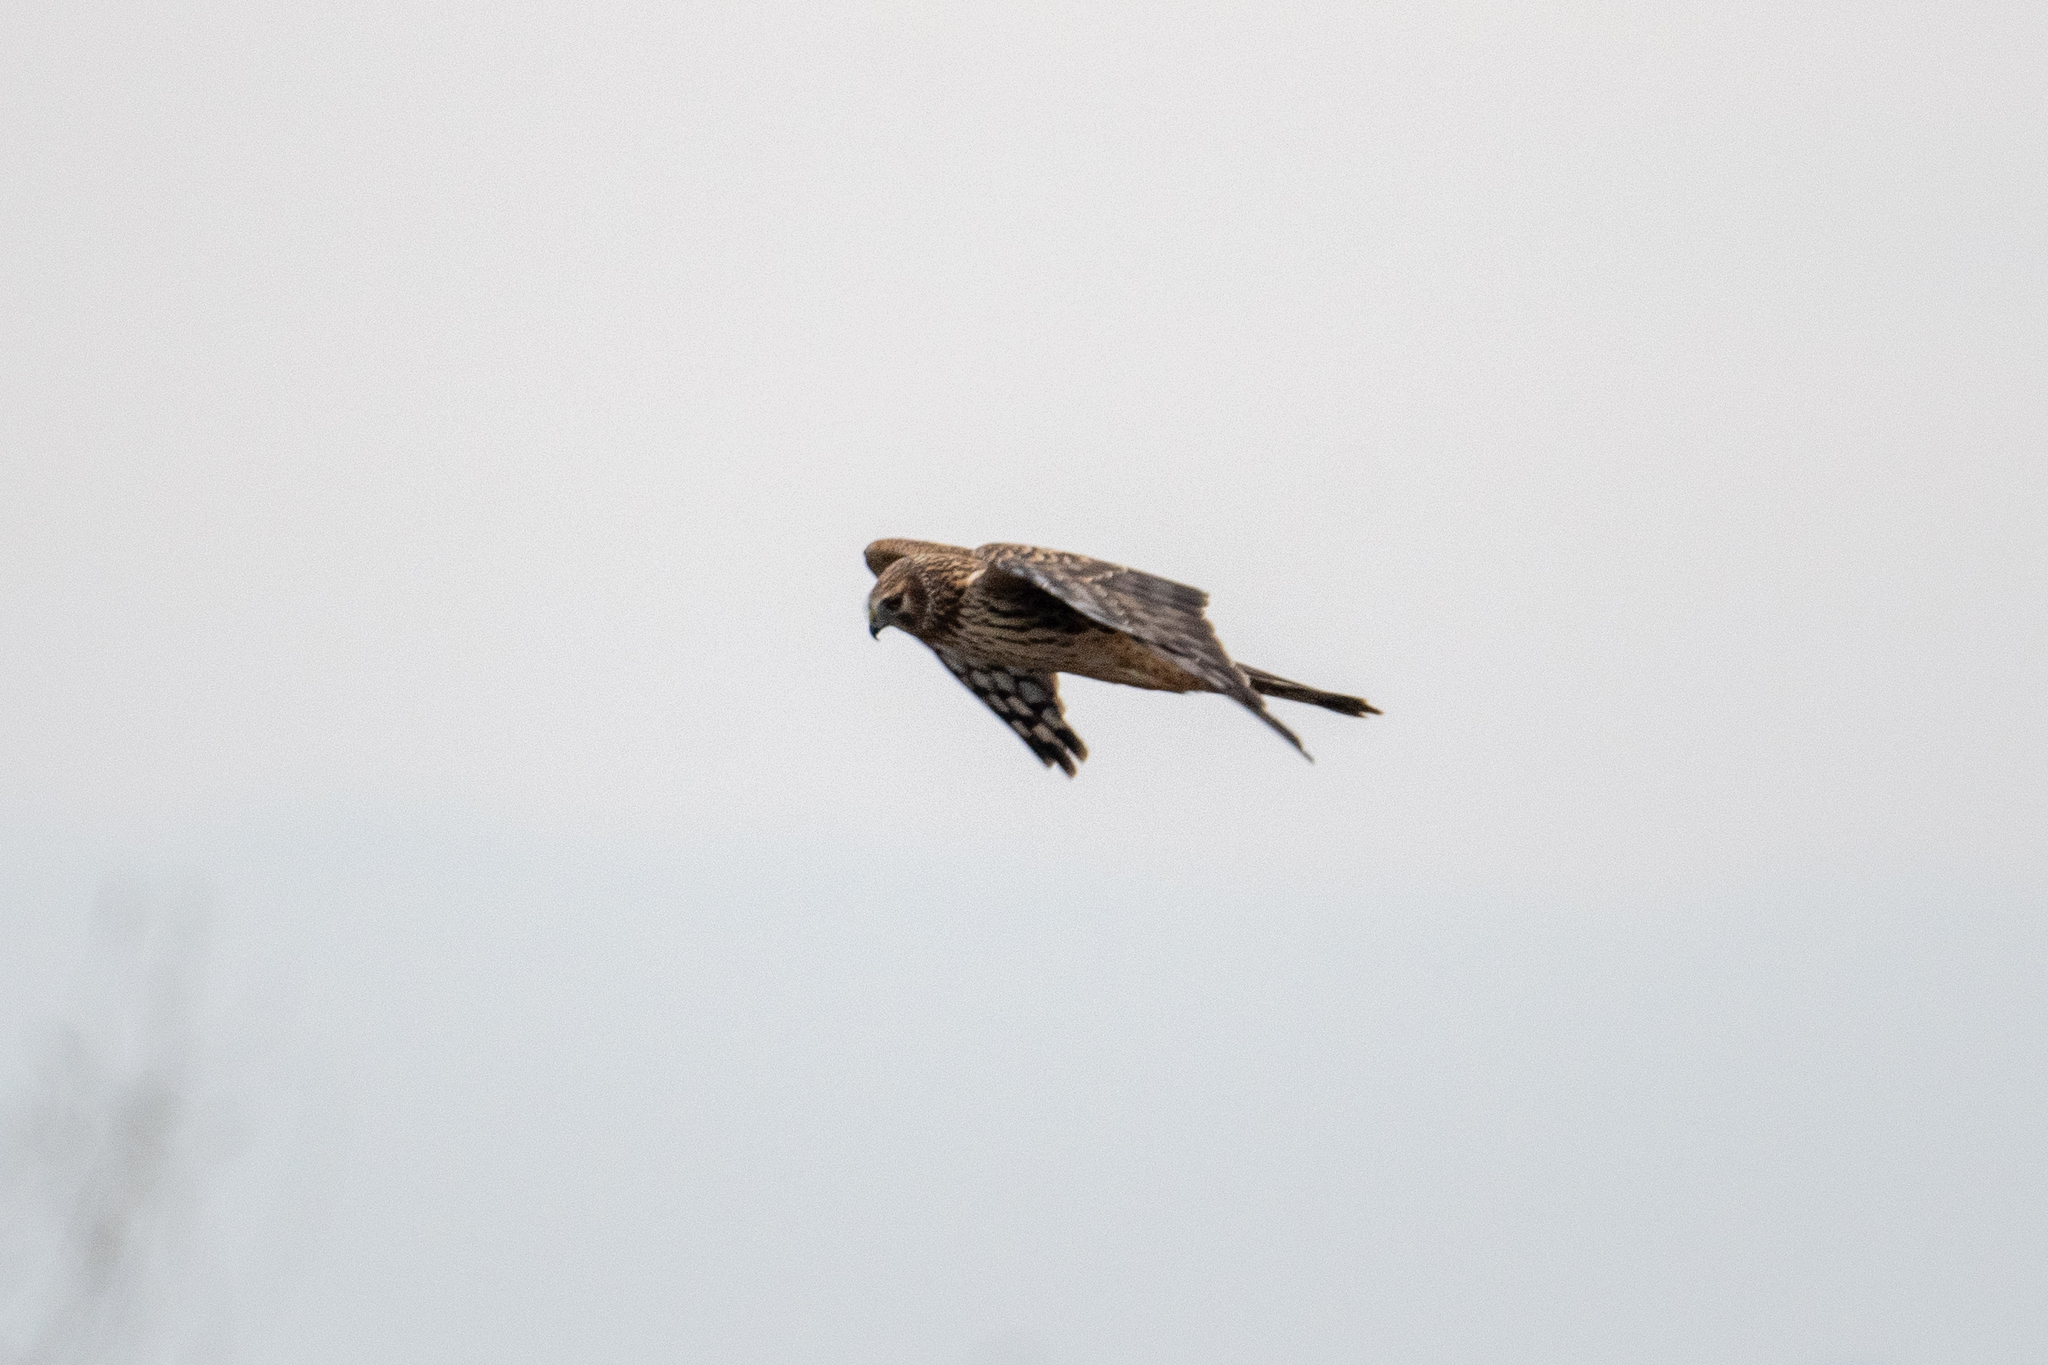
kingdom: Animalia
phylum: Chordata
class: Aves
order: Accipitriformes
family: Accipitridae
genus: Circus
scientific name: Circus cyaneus
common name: Hen harrier
